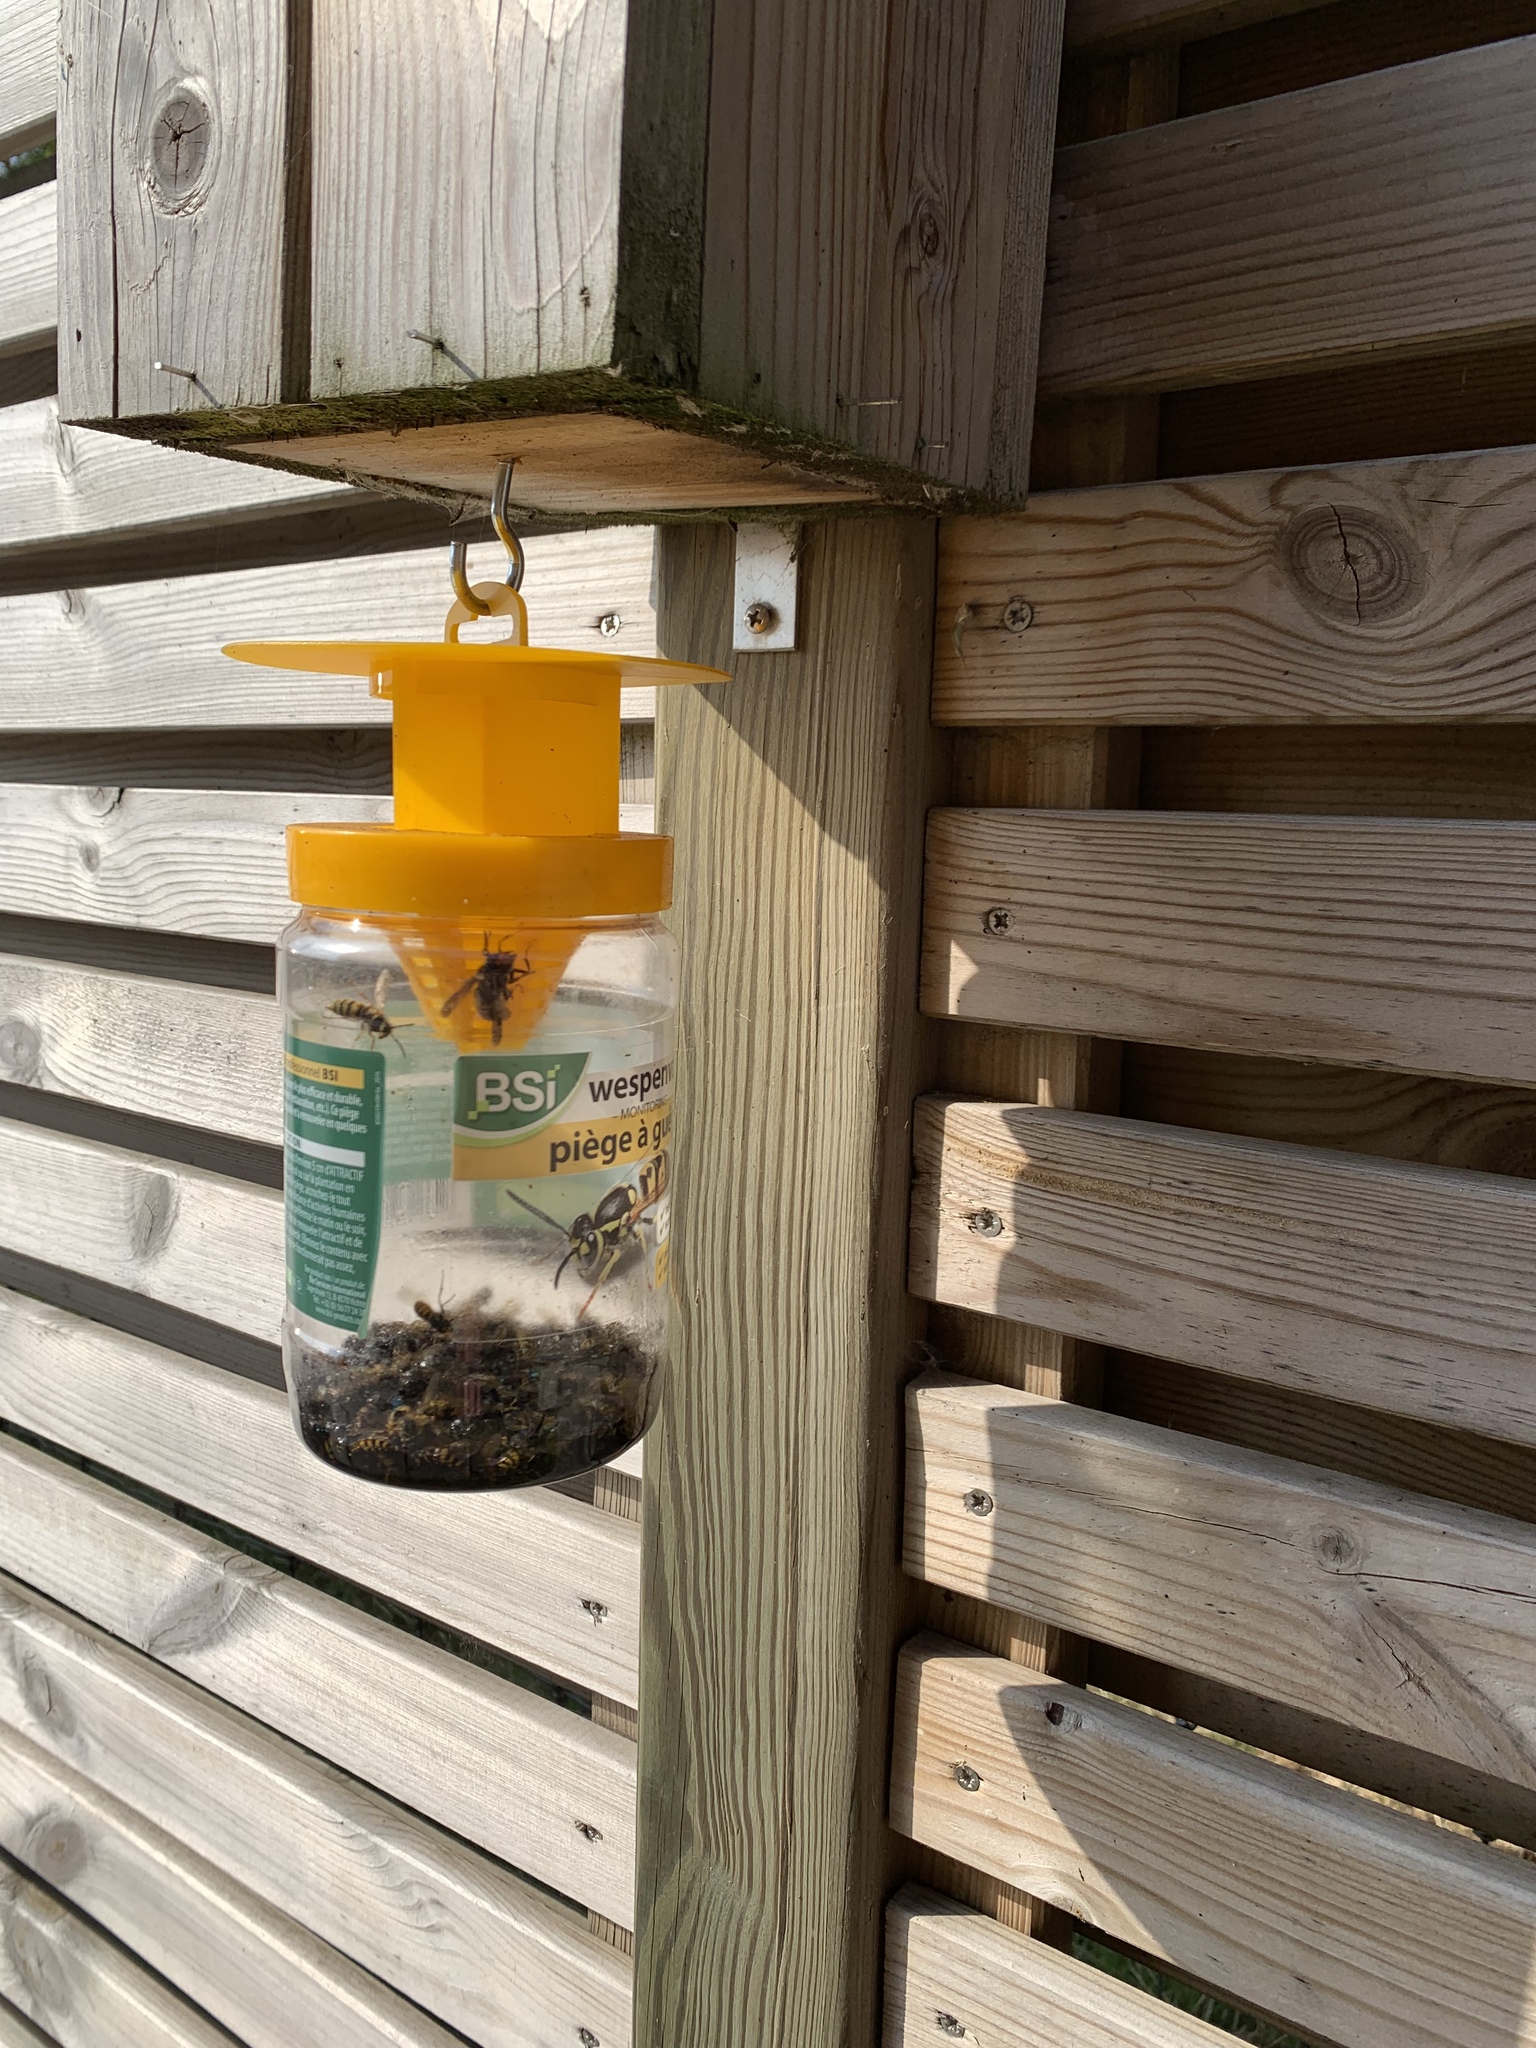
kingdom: Animalia
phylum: Arthropoda
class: Insecta
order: Hymenoptera
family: Vespidae
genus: Vespa
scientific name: Vespa velutina
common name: Asian hornet
